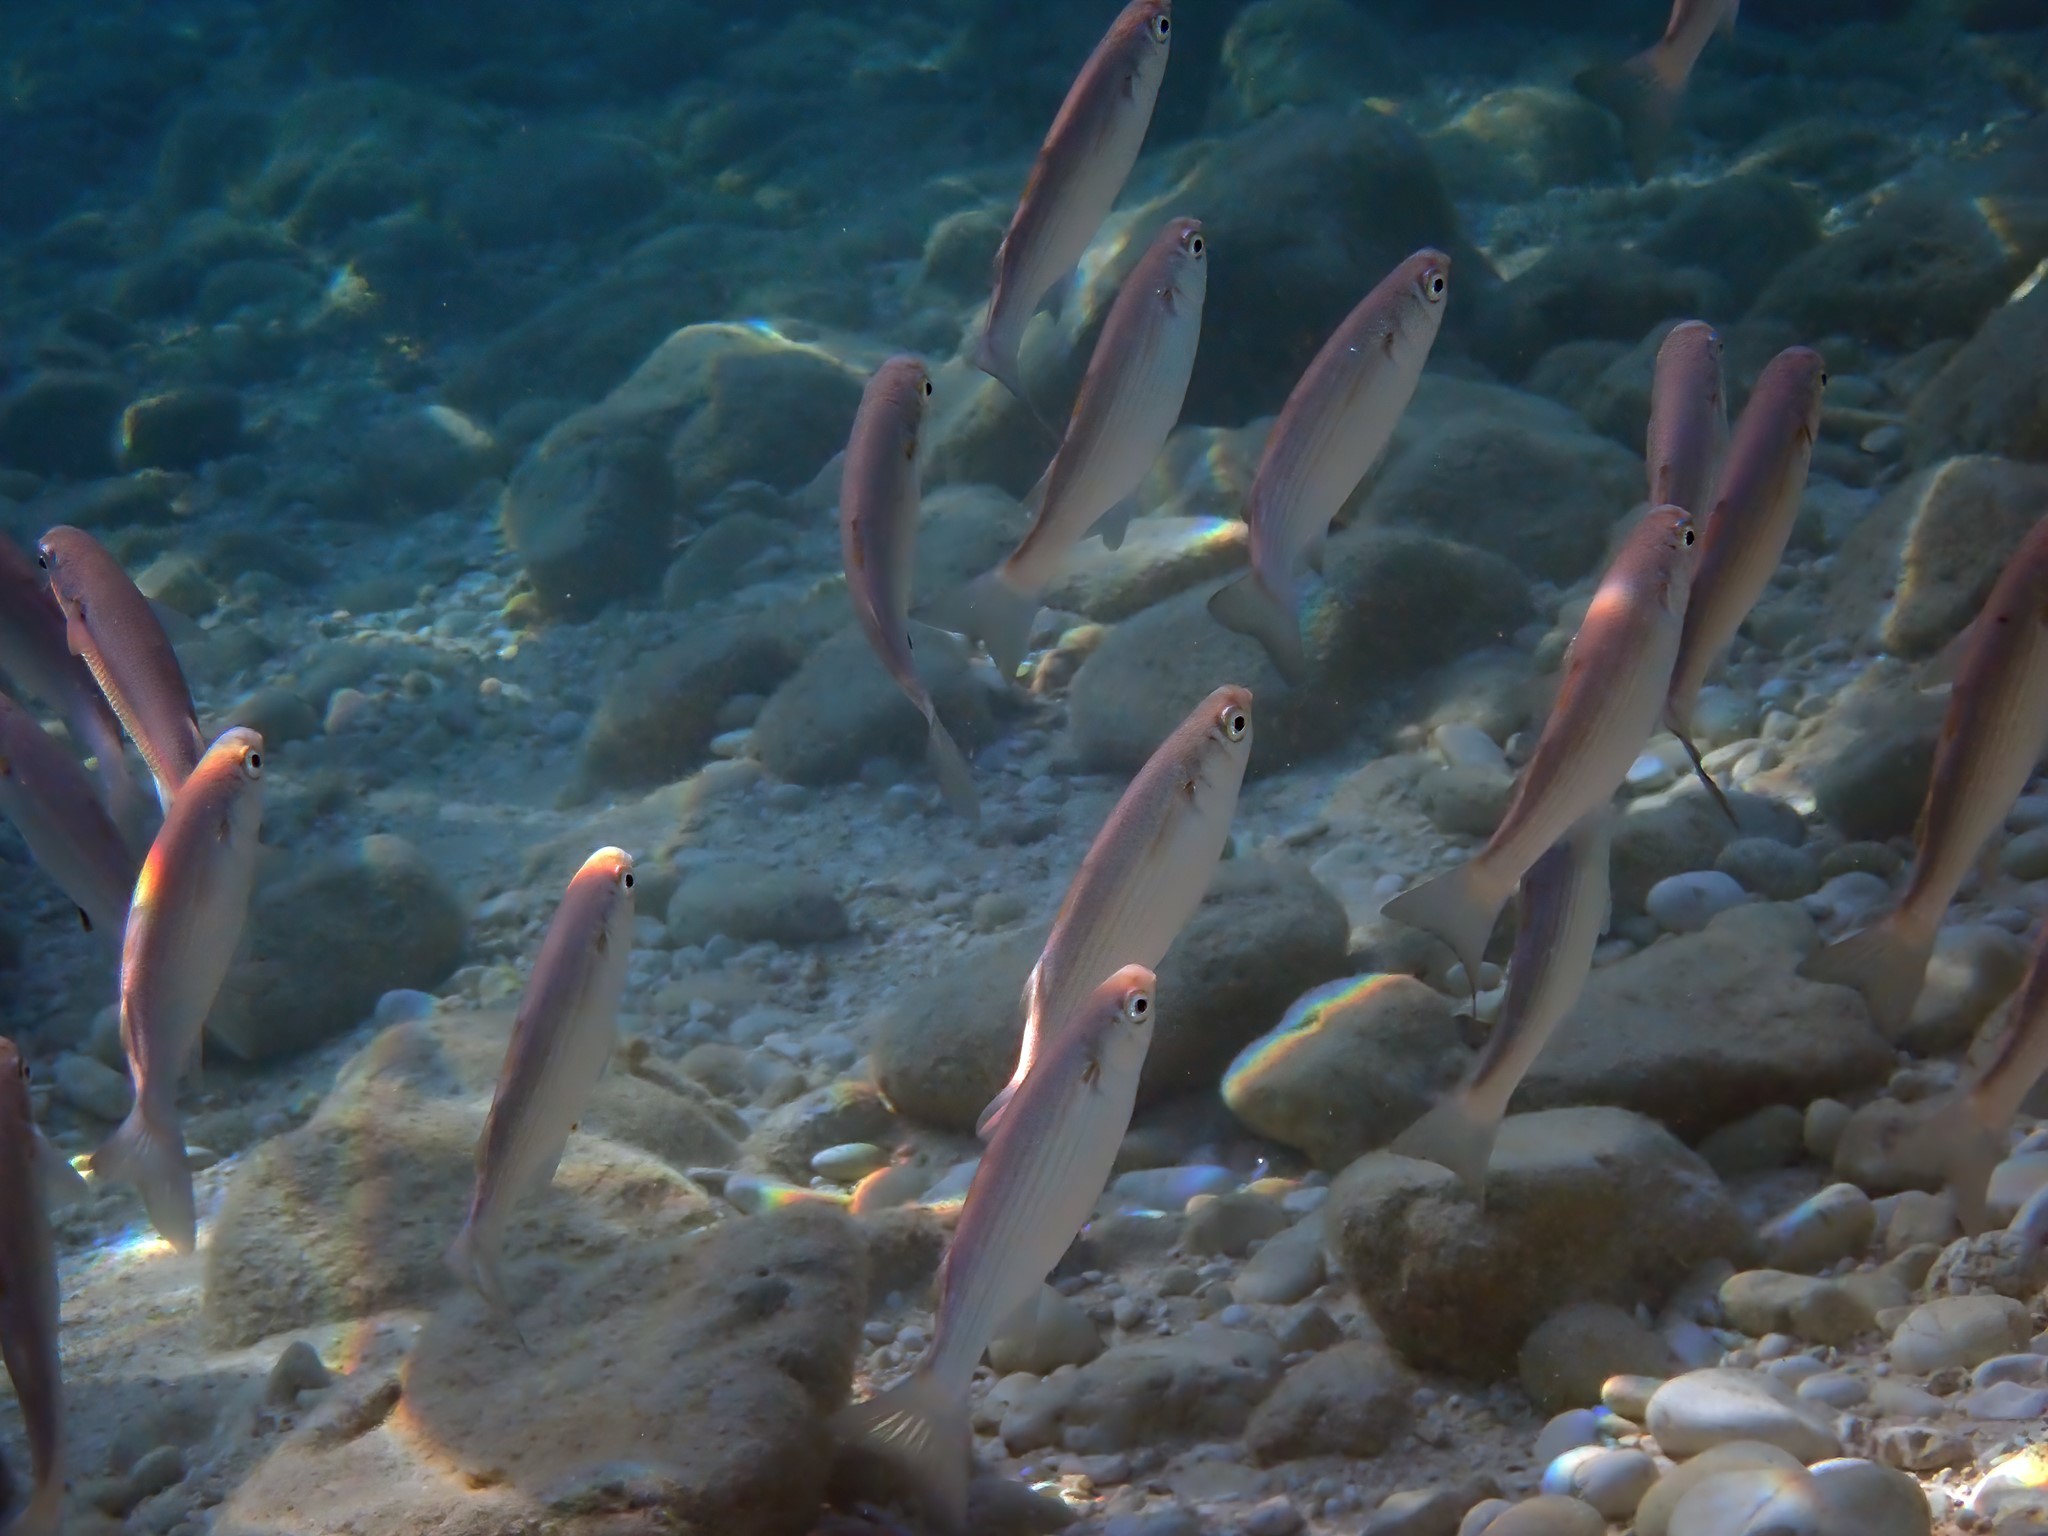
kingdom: Animalia
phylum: Chordata
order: Mugiliformes
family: Mugilidae
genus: Oedalechilus
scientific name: Oedalechilus labeo
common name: Boxlip mullet
